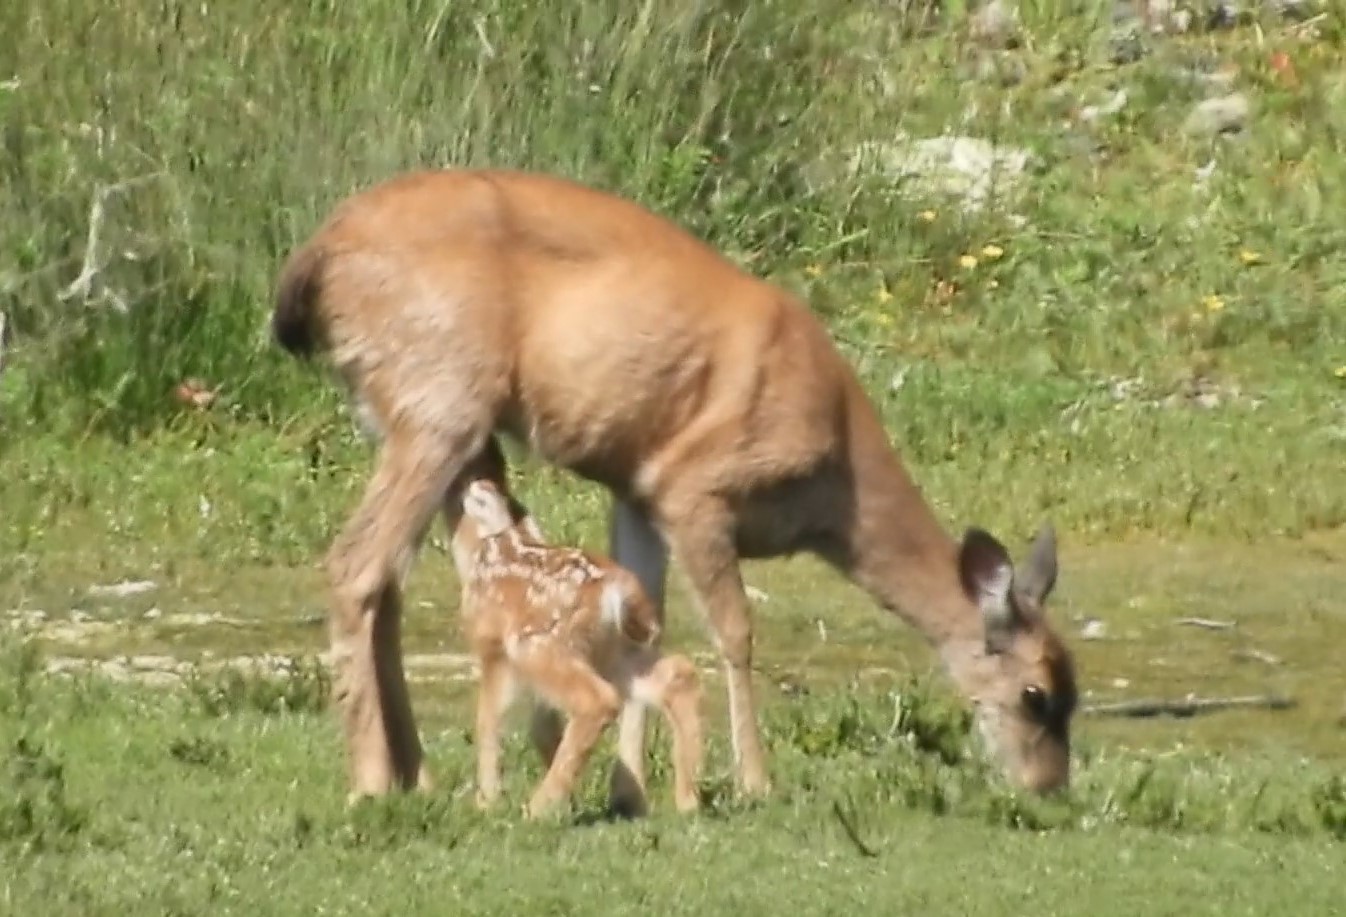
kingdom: Animalia
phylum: Chordata
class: Mammalia
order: Artiodactyla
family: Cervidae
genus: Odocoileus
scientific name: Odocoileus hemionus
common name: Mule deer
